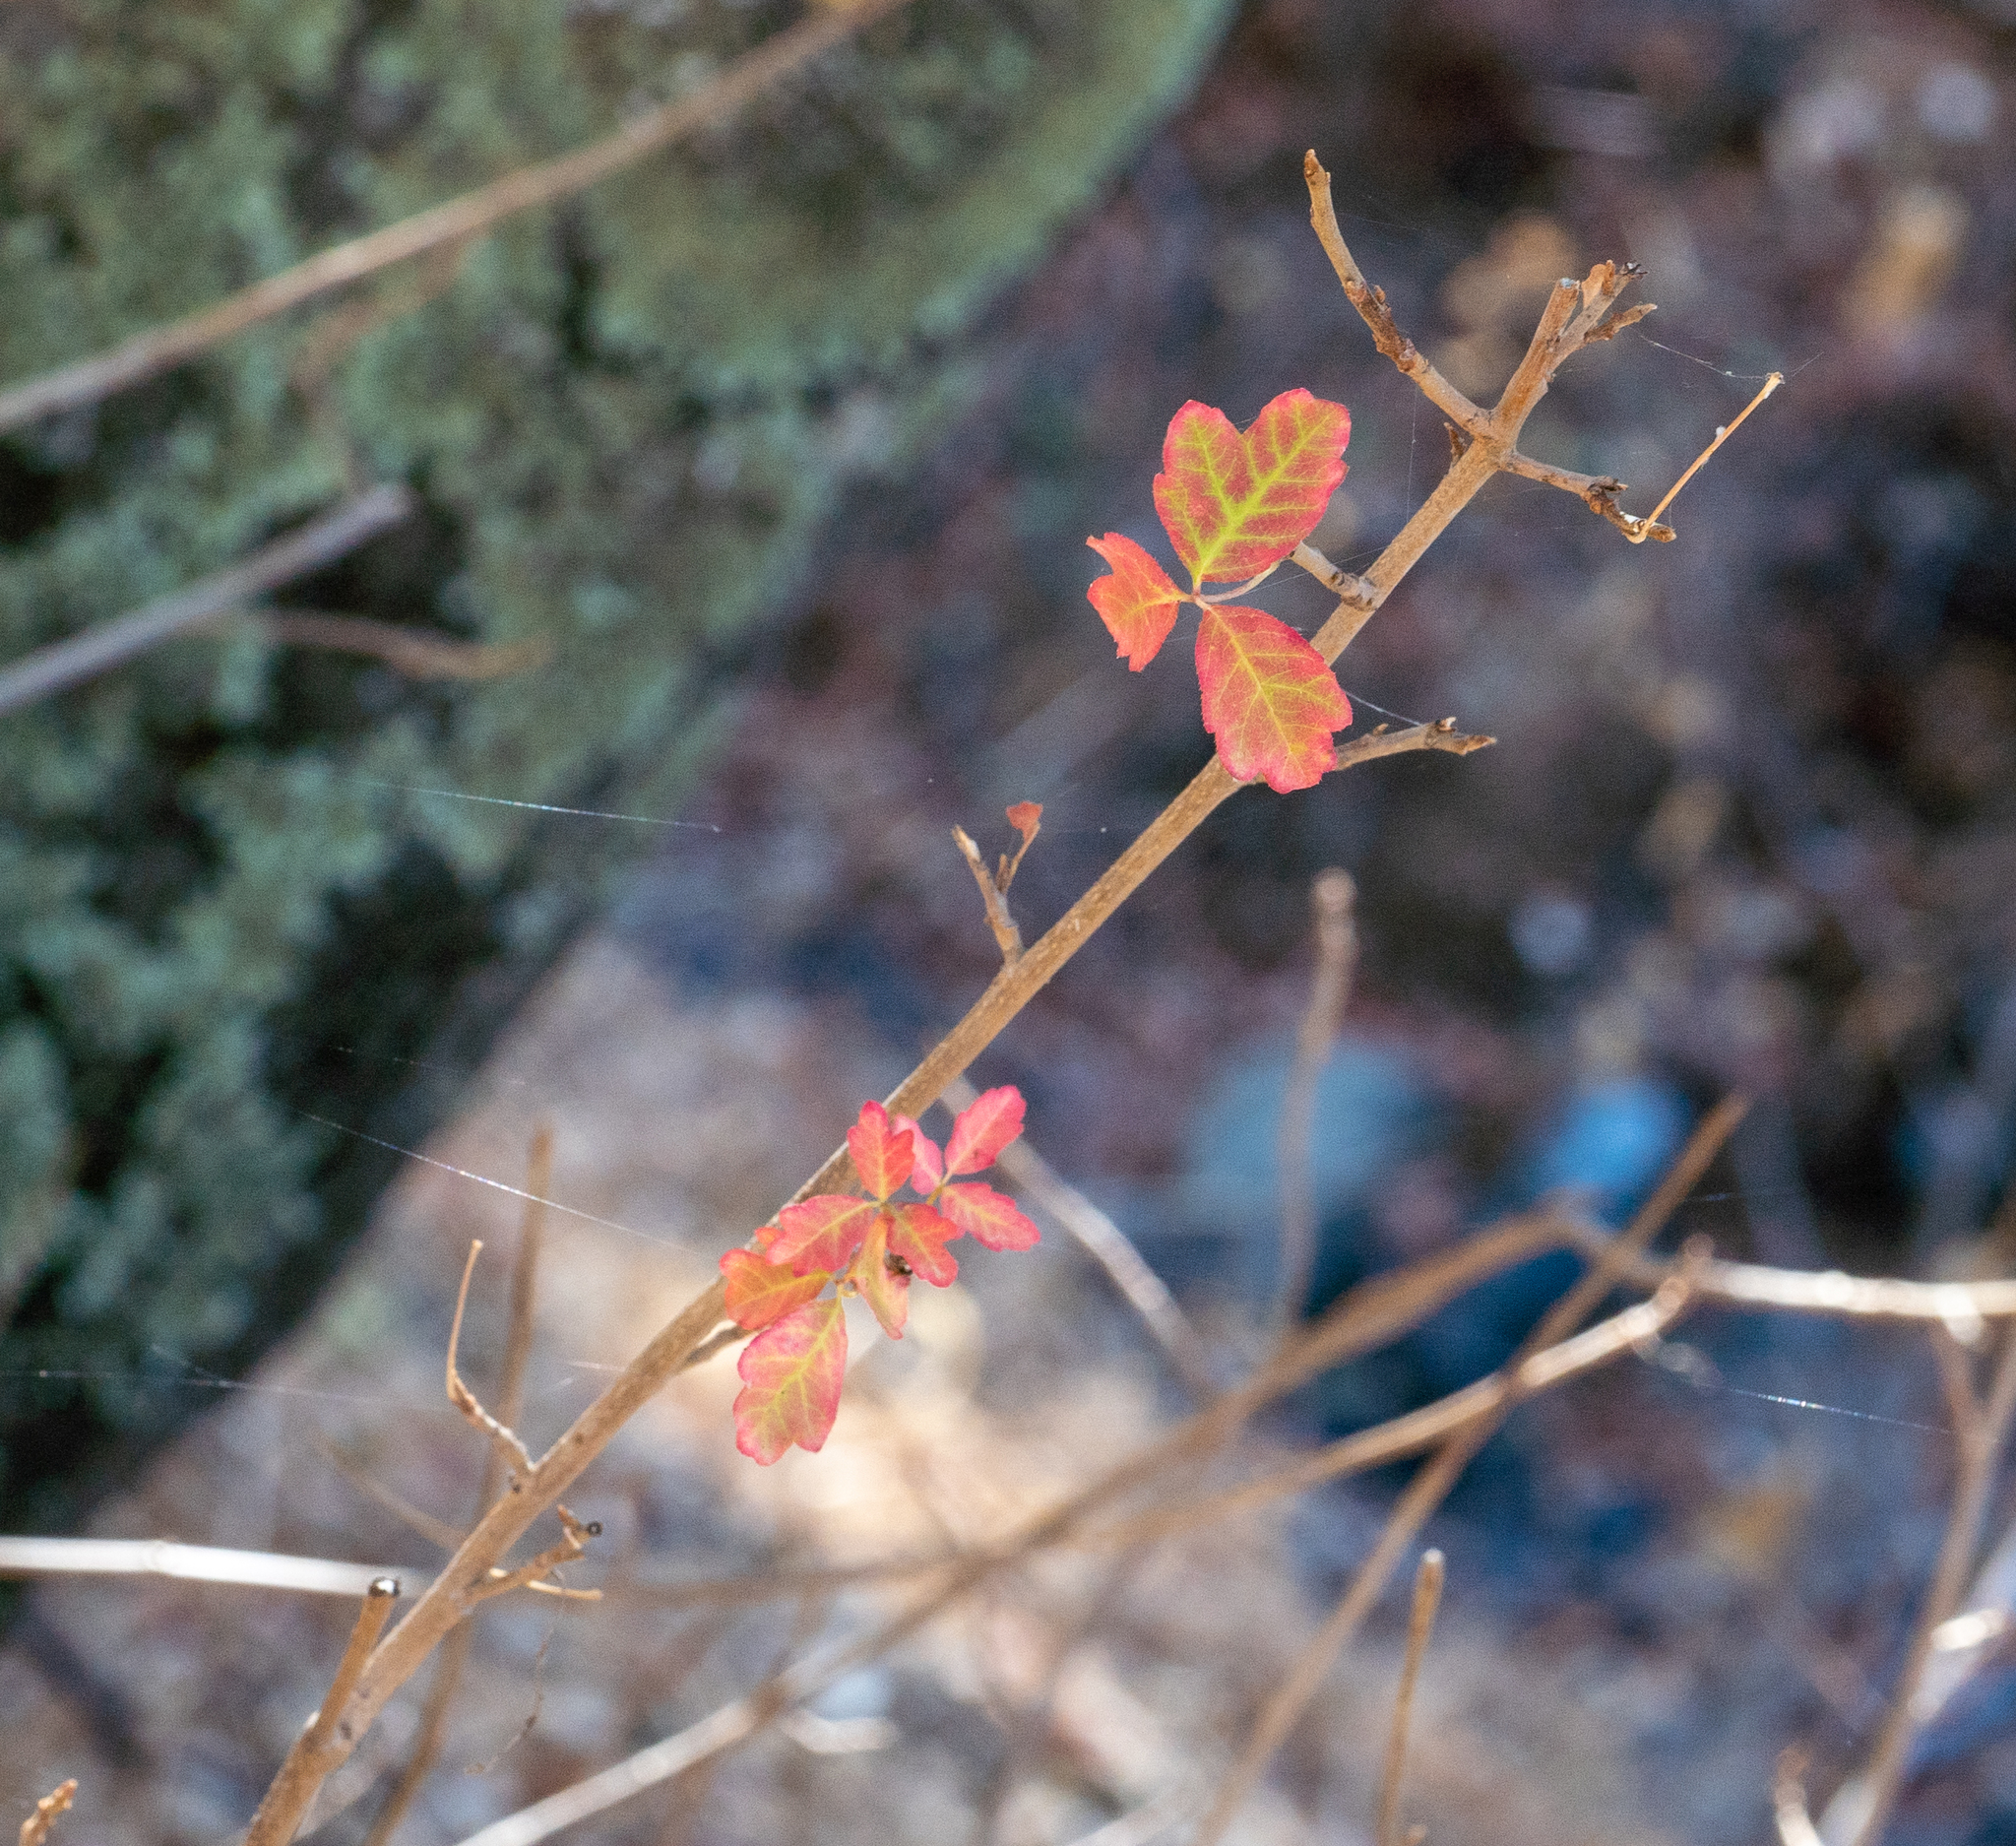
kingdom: Plantae
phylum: Tracheophyta
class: Magnoliopsida
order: Sapindales
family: Anacardiaceae
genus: Toxicodendron
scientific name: Toxicodendron diversilobum
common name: Pacific poison-oak
